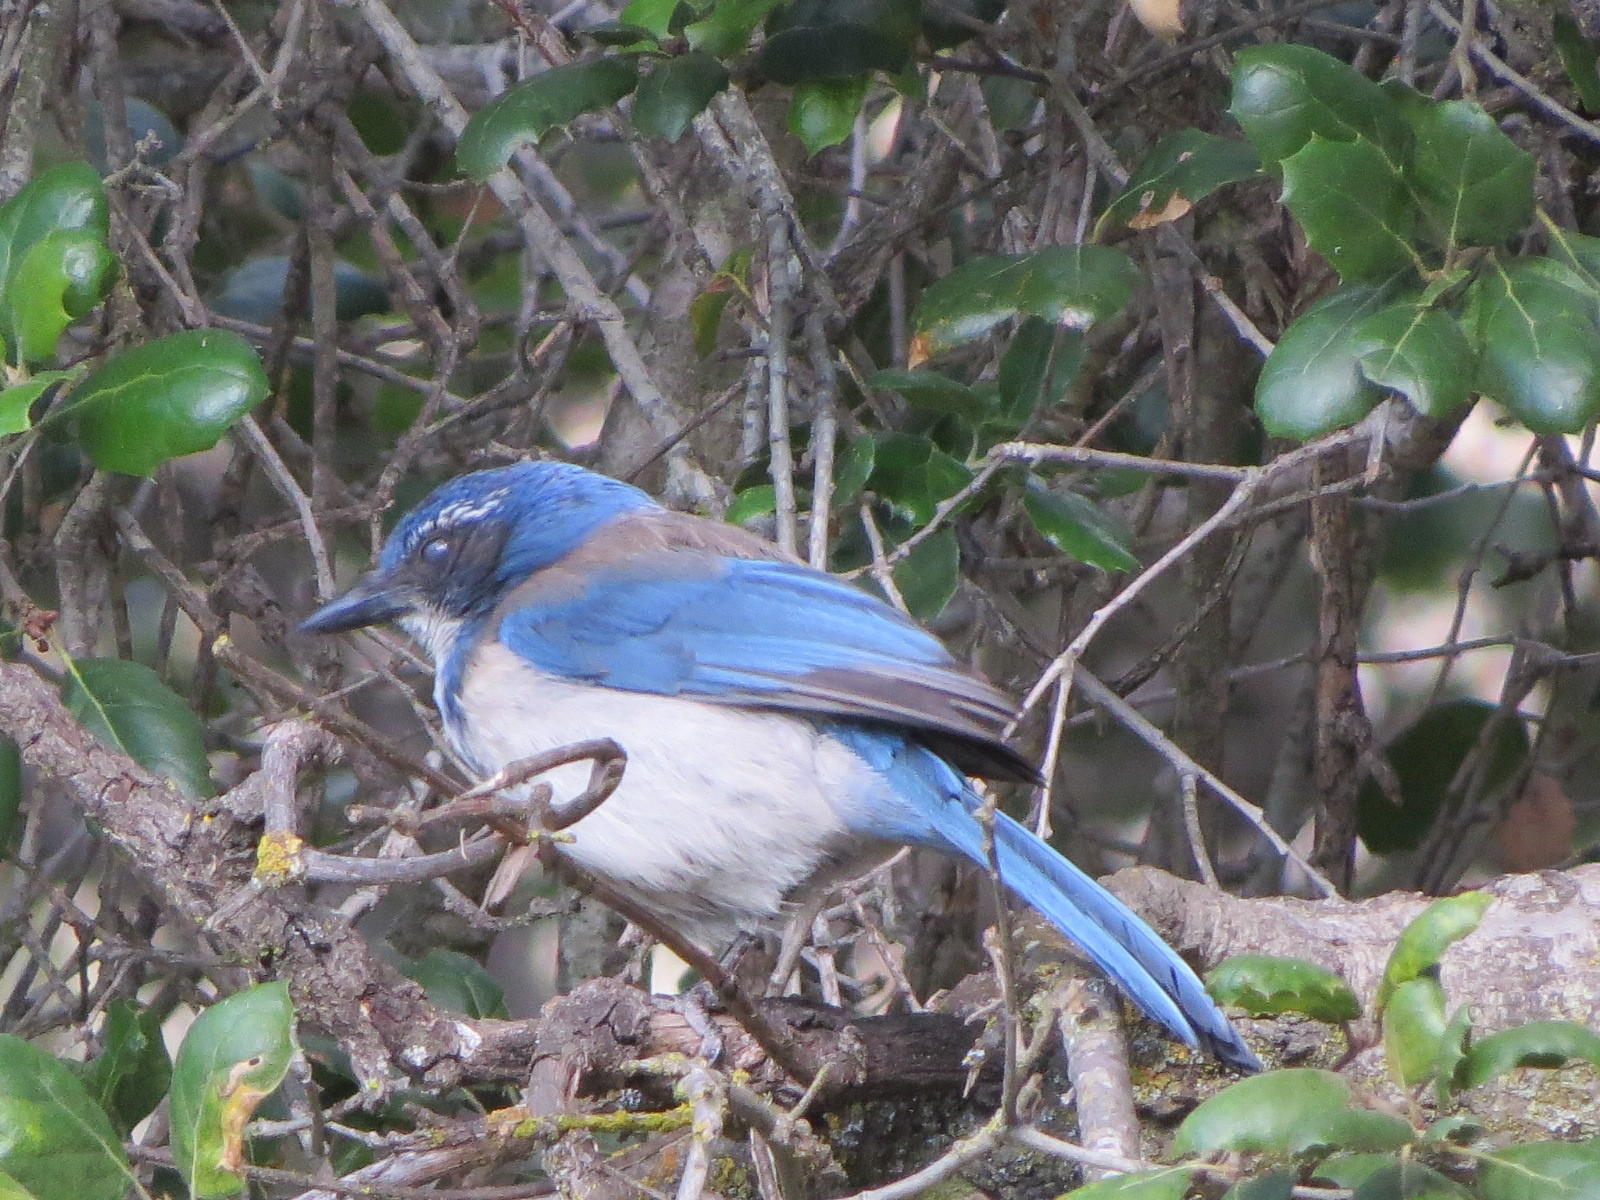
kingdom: Animalia
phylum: Chordata
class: Aves
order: Passeriformes
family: Corvidae
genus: Aphelocoma
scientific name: Aphelocoma californica
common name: California scrub-jay
